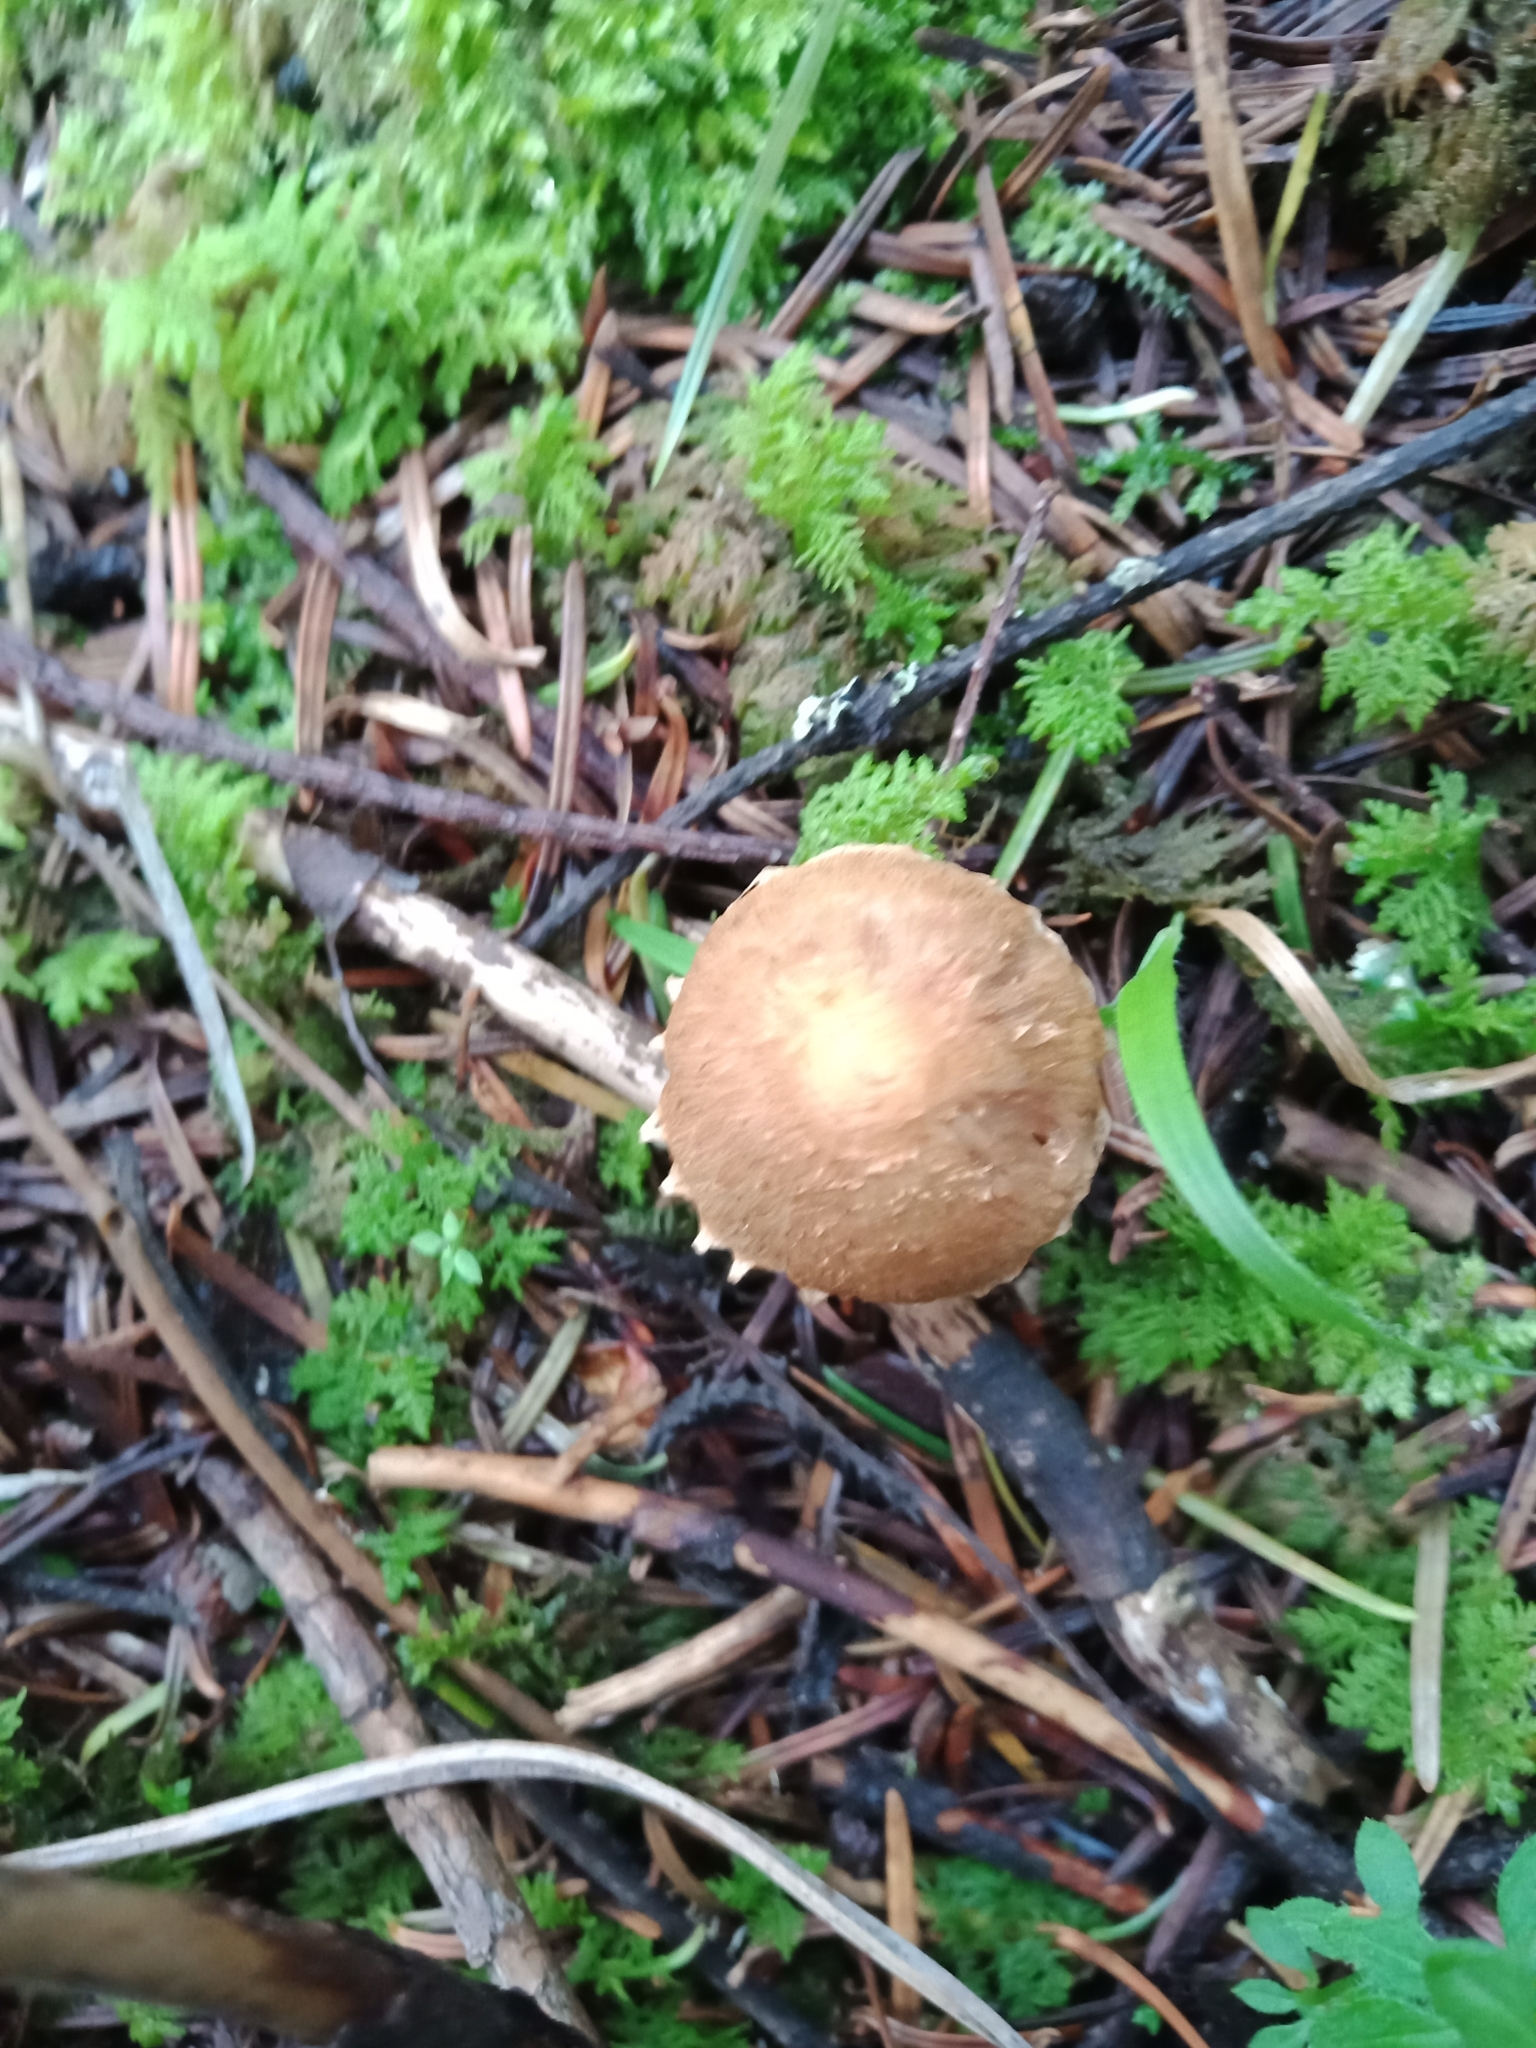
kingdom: Fungi
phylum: Basidiomycota
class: Agaricomycetes
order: Agaricales
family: Tricholomataceae
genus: Cystoderma
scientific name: Cystoderma amianthinum
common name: Earthy powdercap
